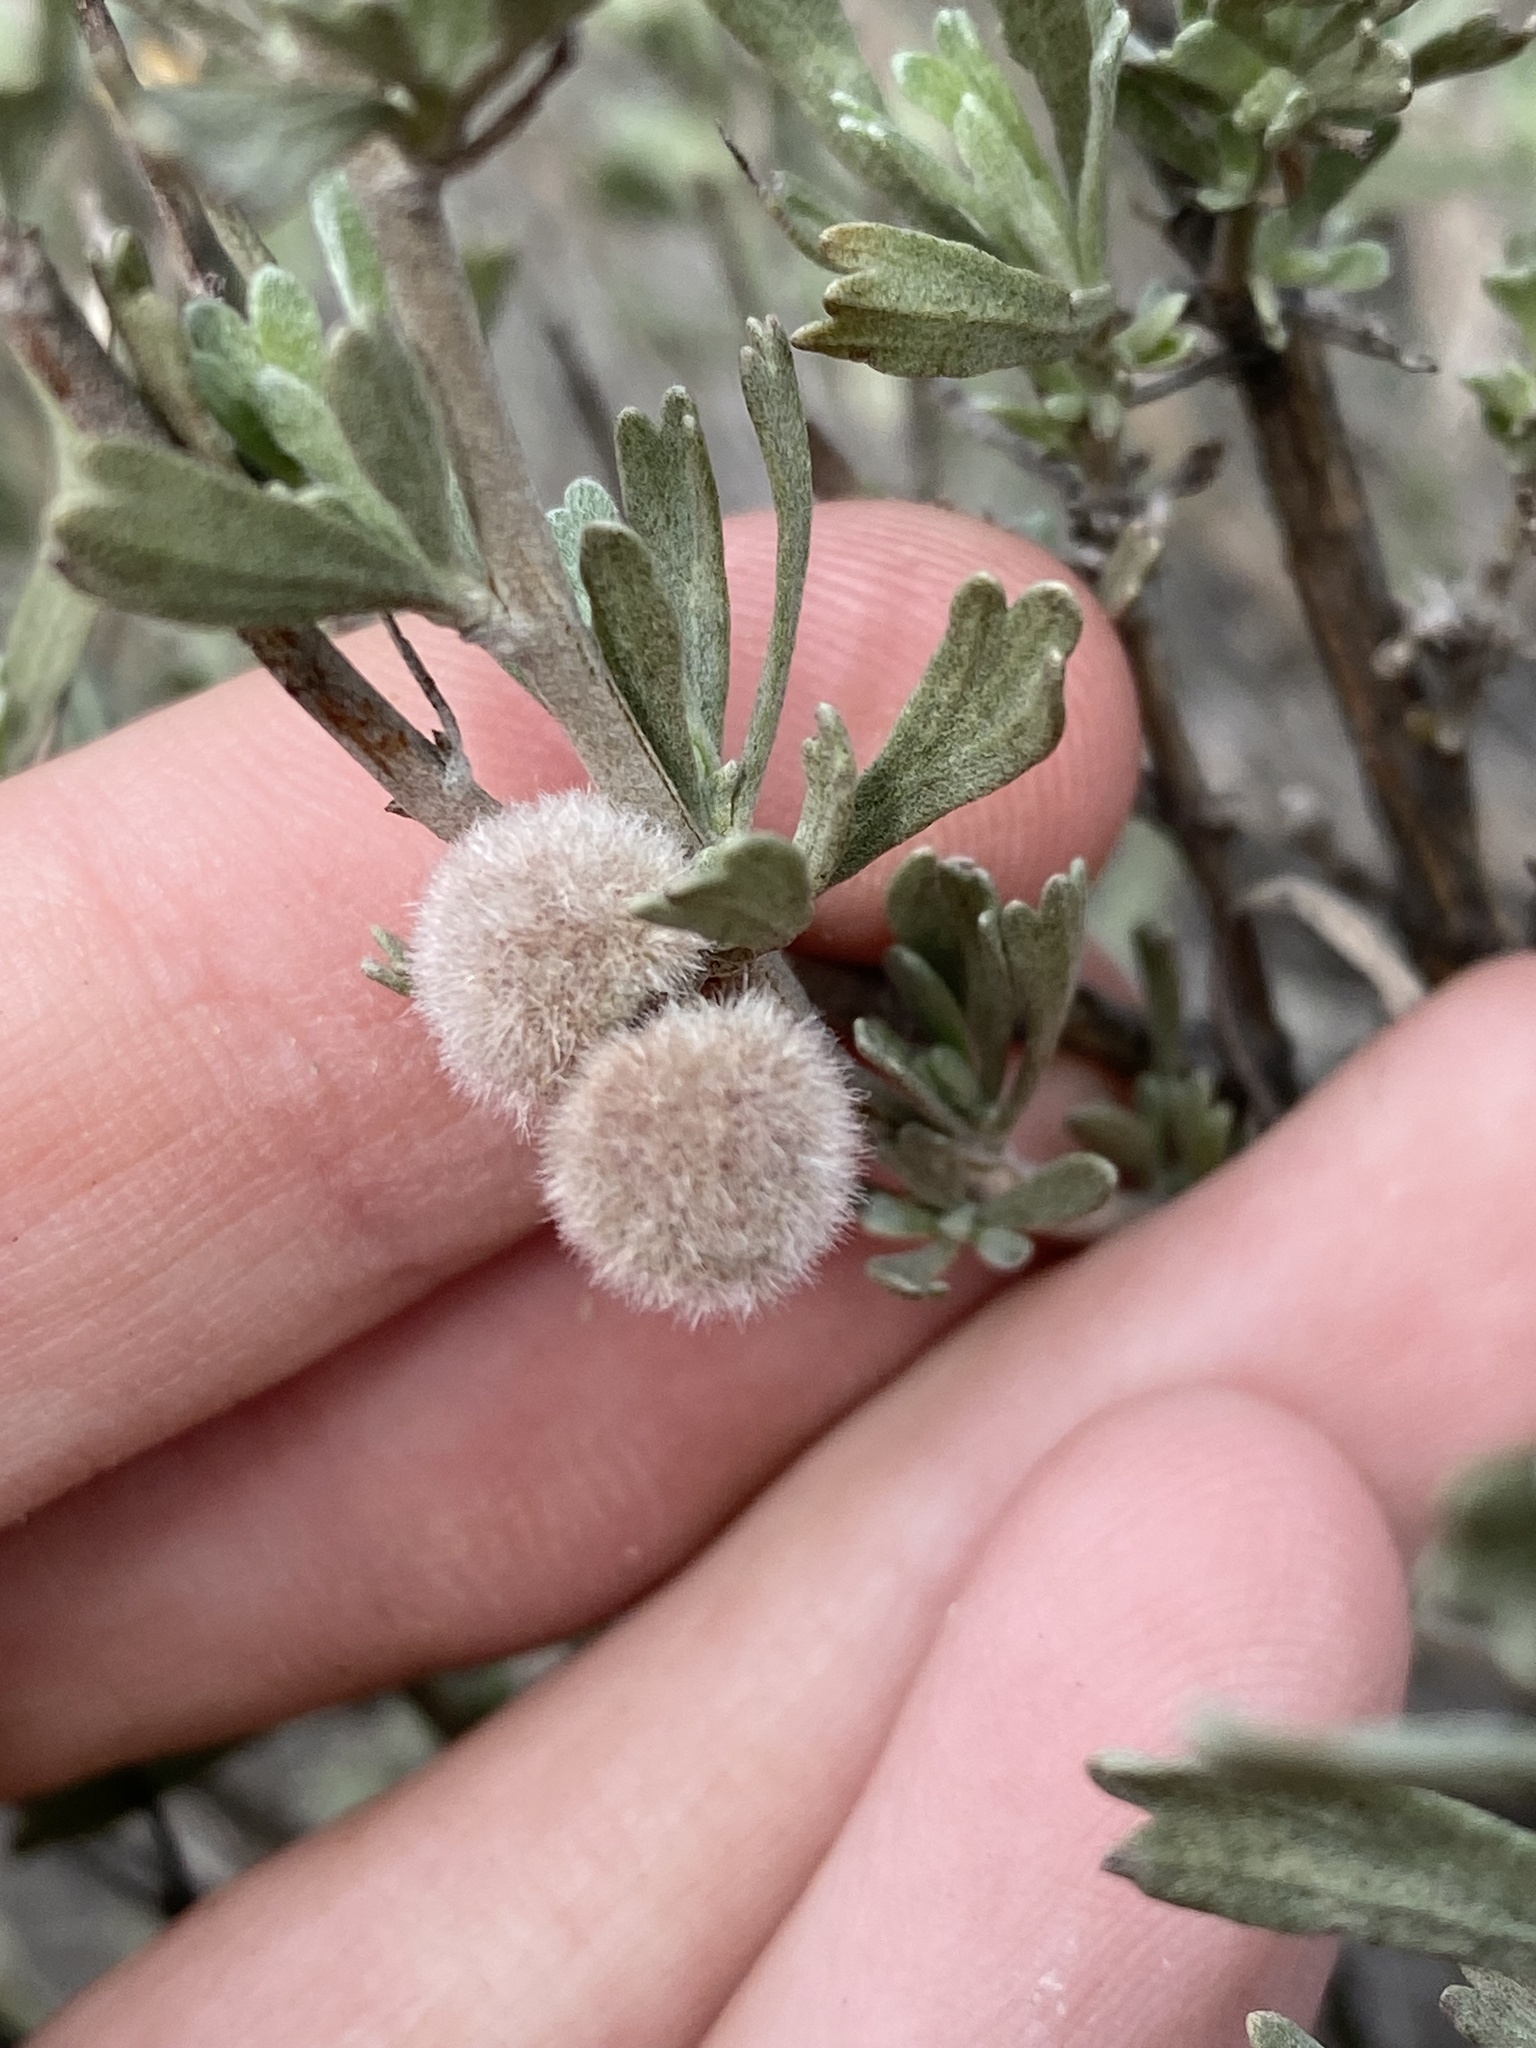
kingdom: Animalia
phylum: Arthropoda
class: Insecta
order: Diptera
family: Cecidomyiidae
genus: Rhopalomyia
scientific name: Rhopalomyia hirtipomum
